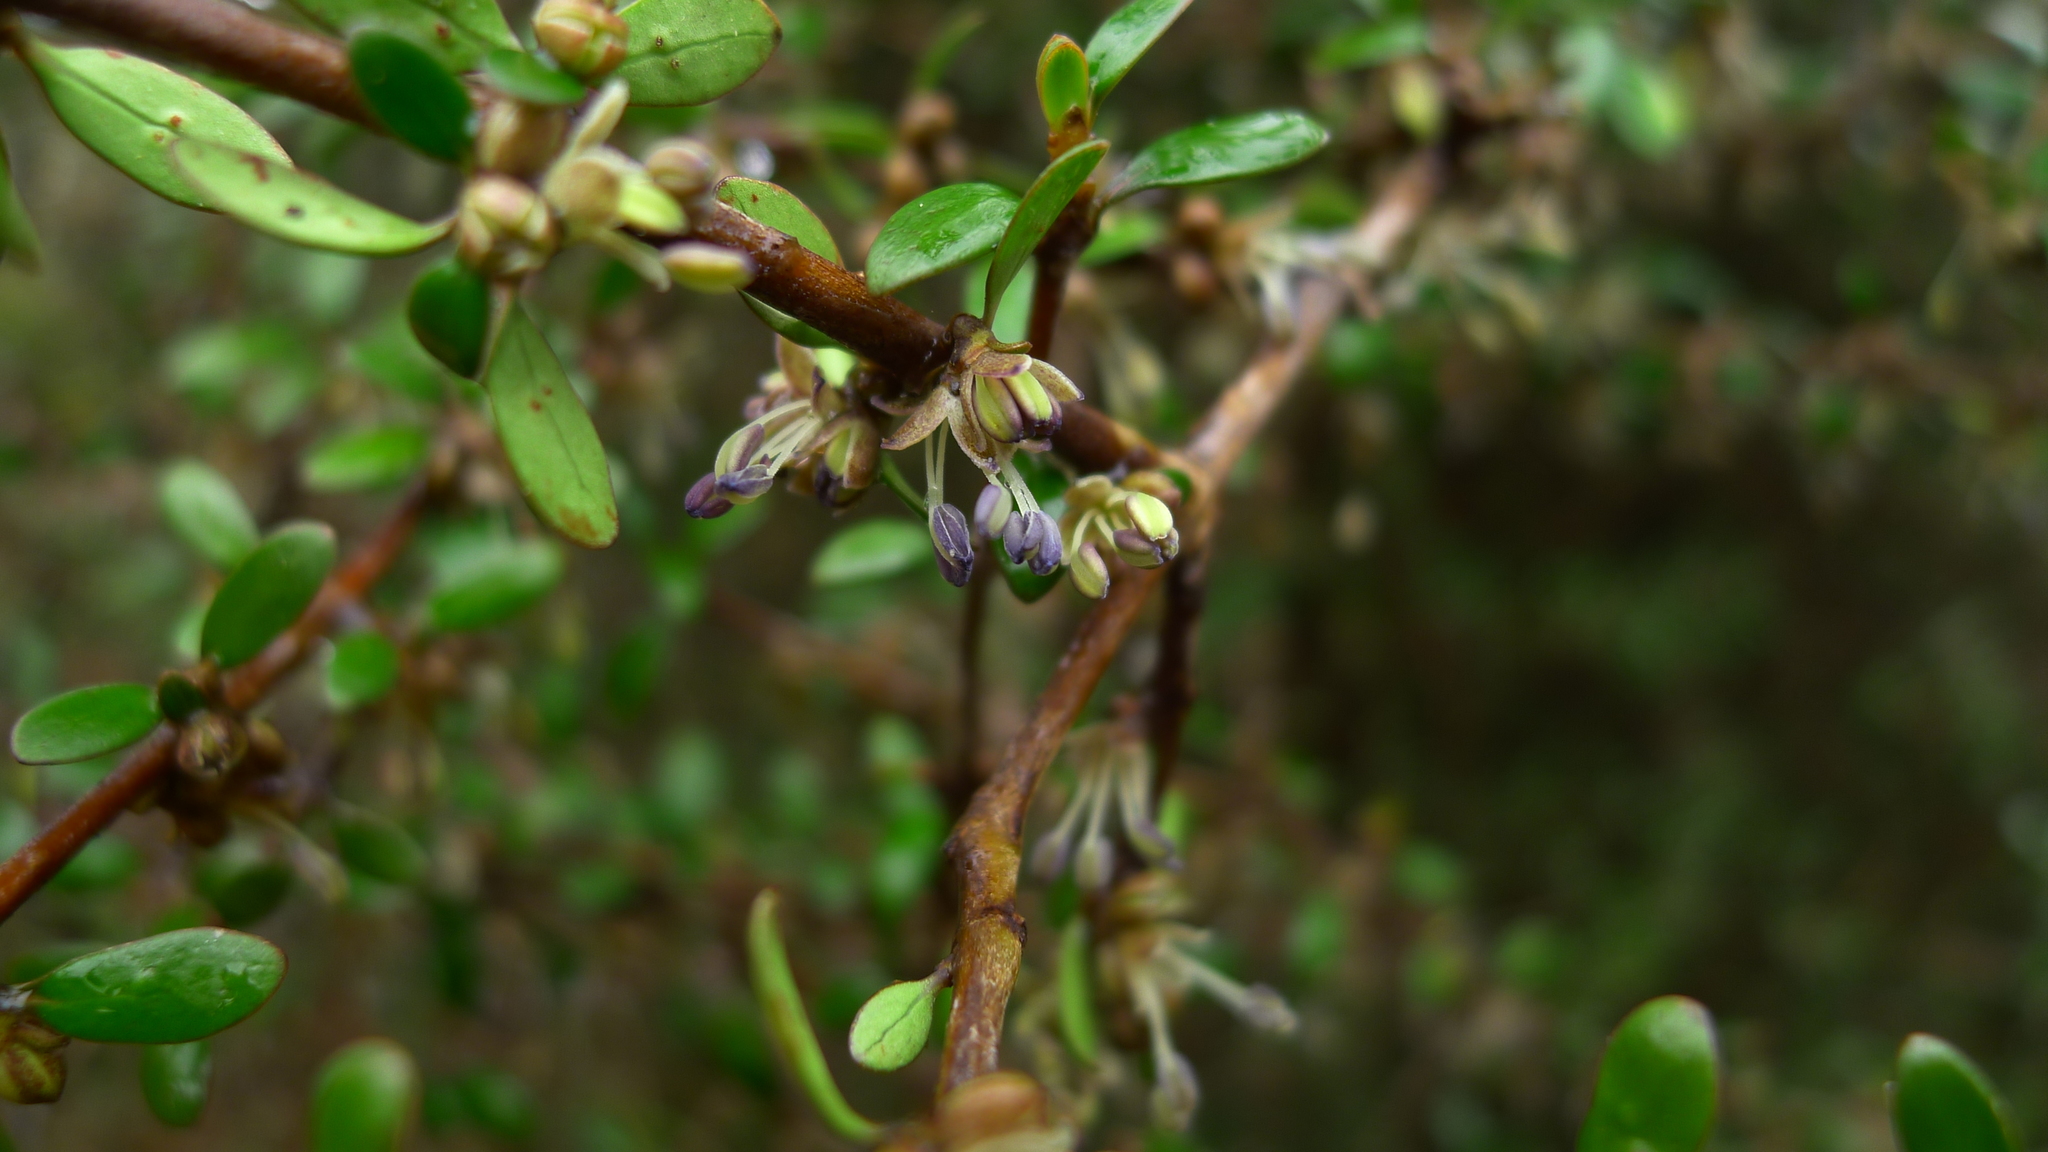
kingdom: Plantae
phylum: Tracheophyta
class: Magnoliopsida
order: Gentianales
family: Rubiaceae
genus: Coprosma
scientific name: Coprosma propinqua
